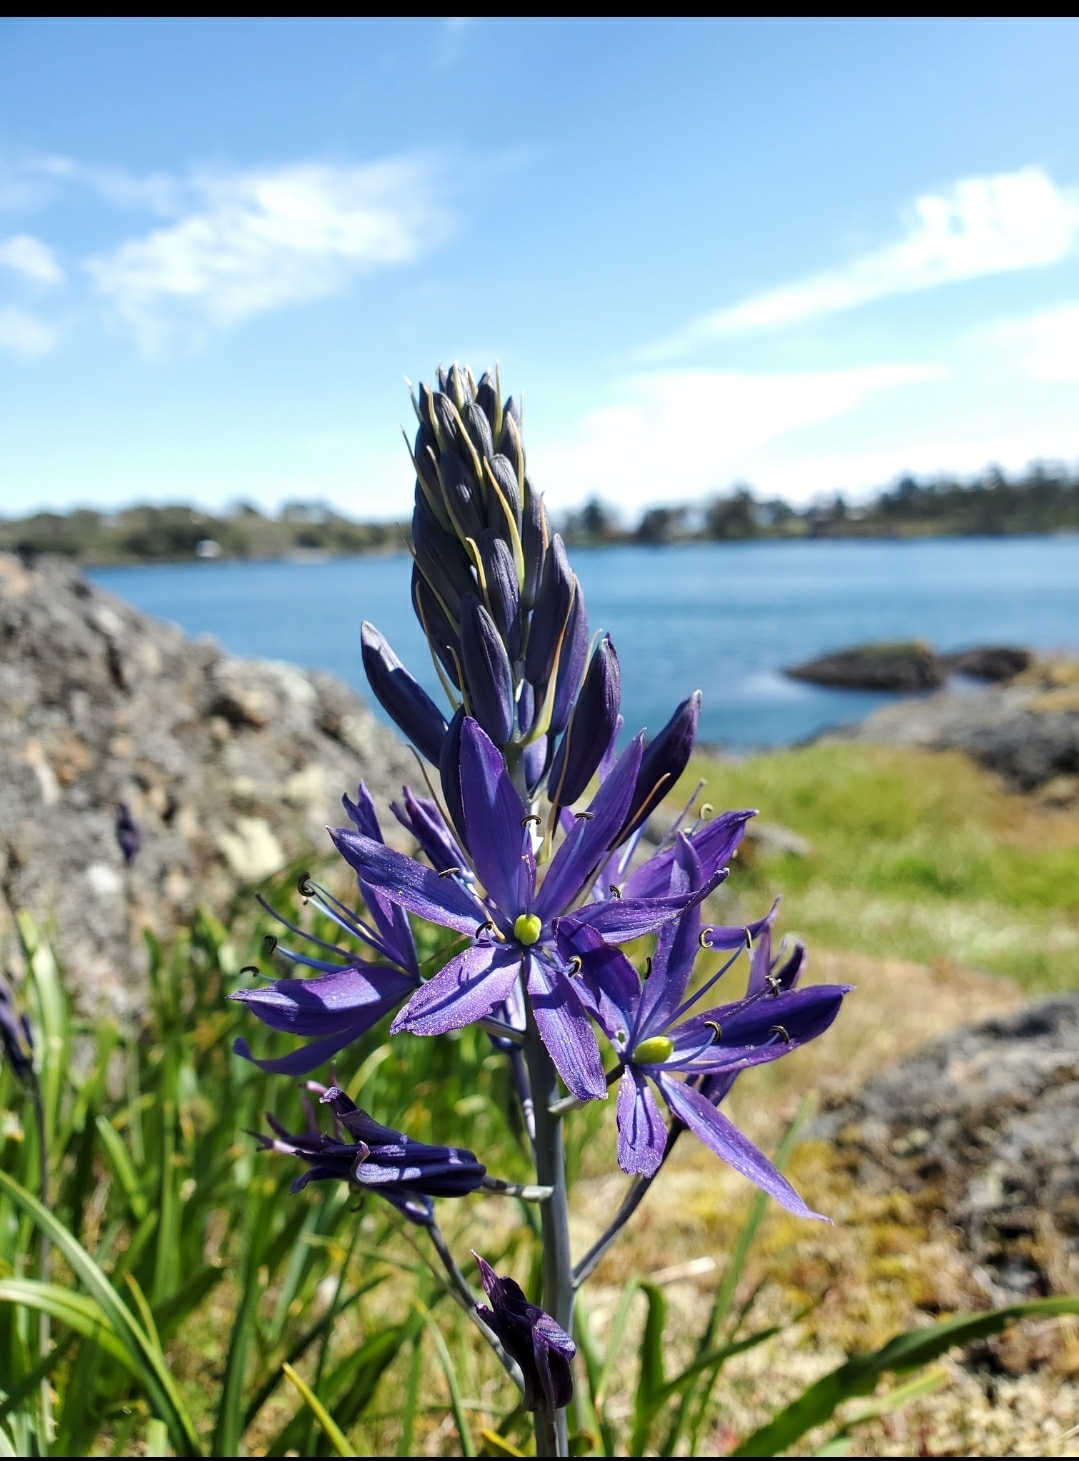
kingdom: Plantae
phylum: Tracheophyta
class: Liliopsida
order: Asparagales
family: Asparagaceae
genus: Camassia
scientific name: Camassia leichtlinii
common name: Leichtlin's camas
